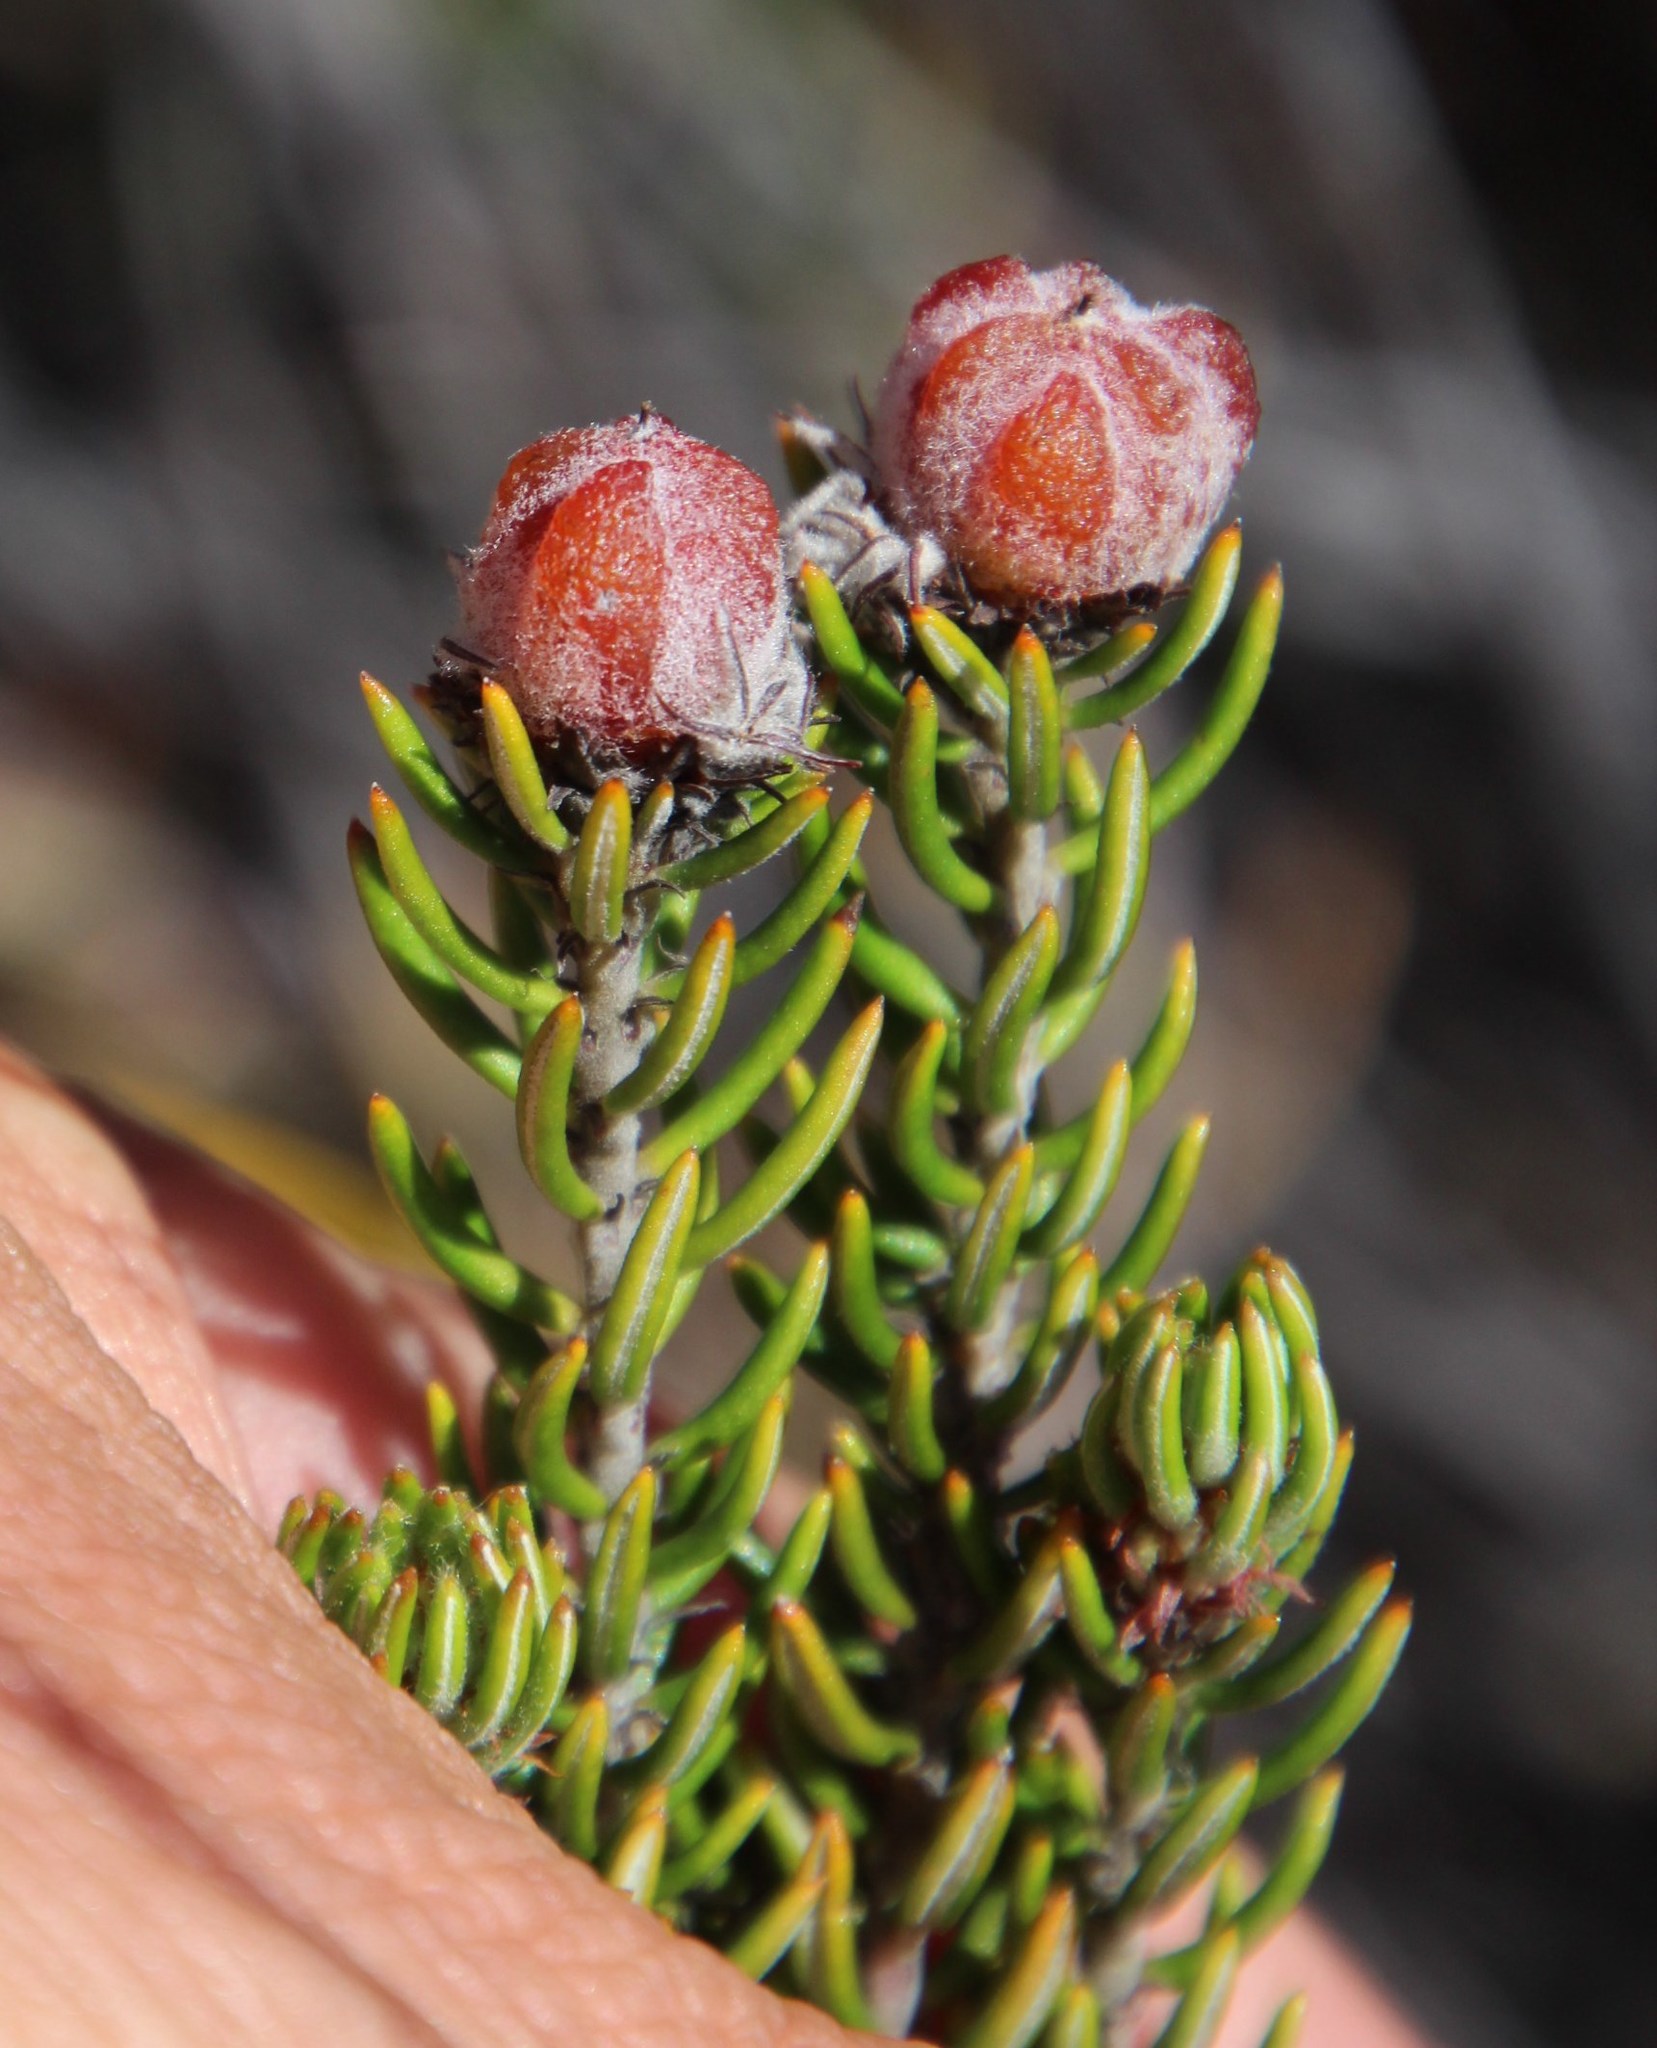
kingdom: Plantae
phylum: Tracheophyta
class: Magnoliopsida
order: Rosales
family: Rhamnaceae
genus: Trichocephalus
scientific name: Trichocephalus stipularis
